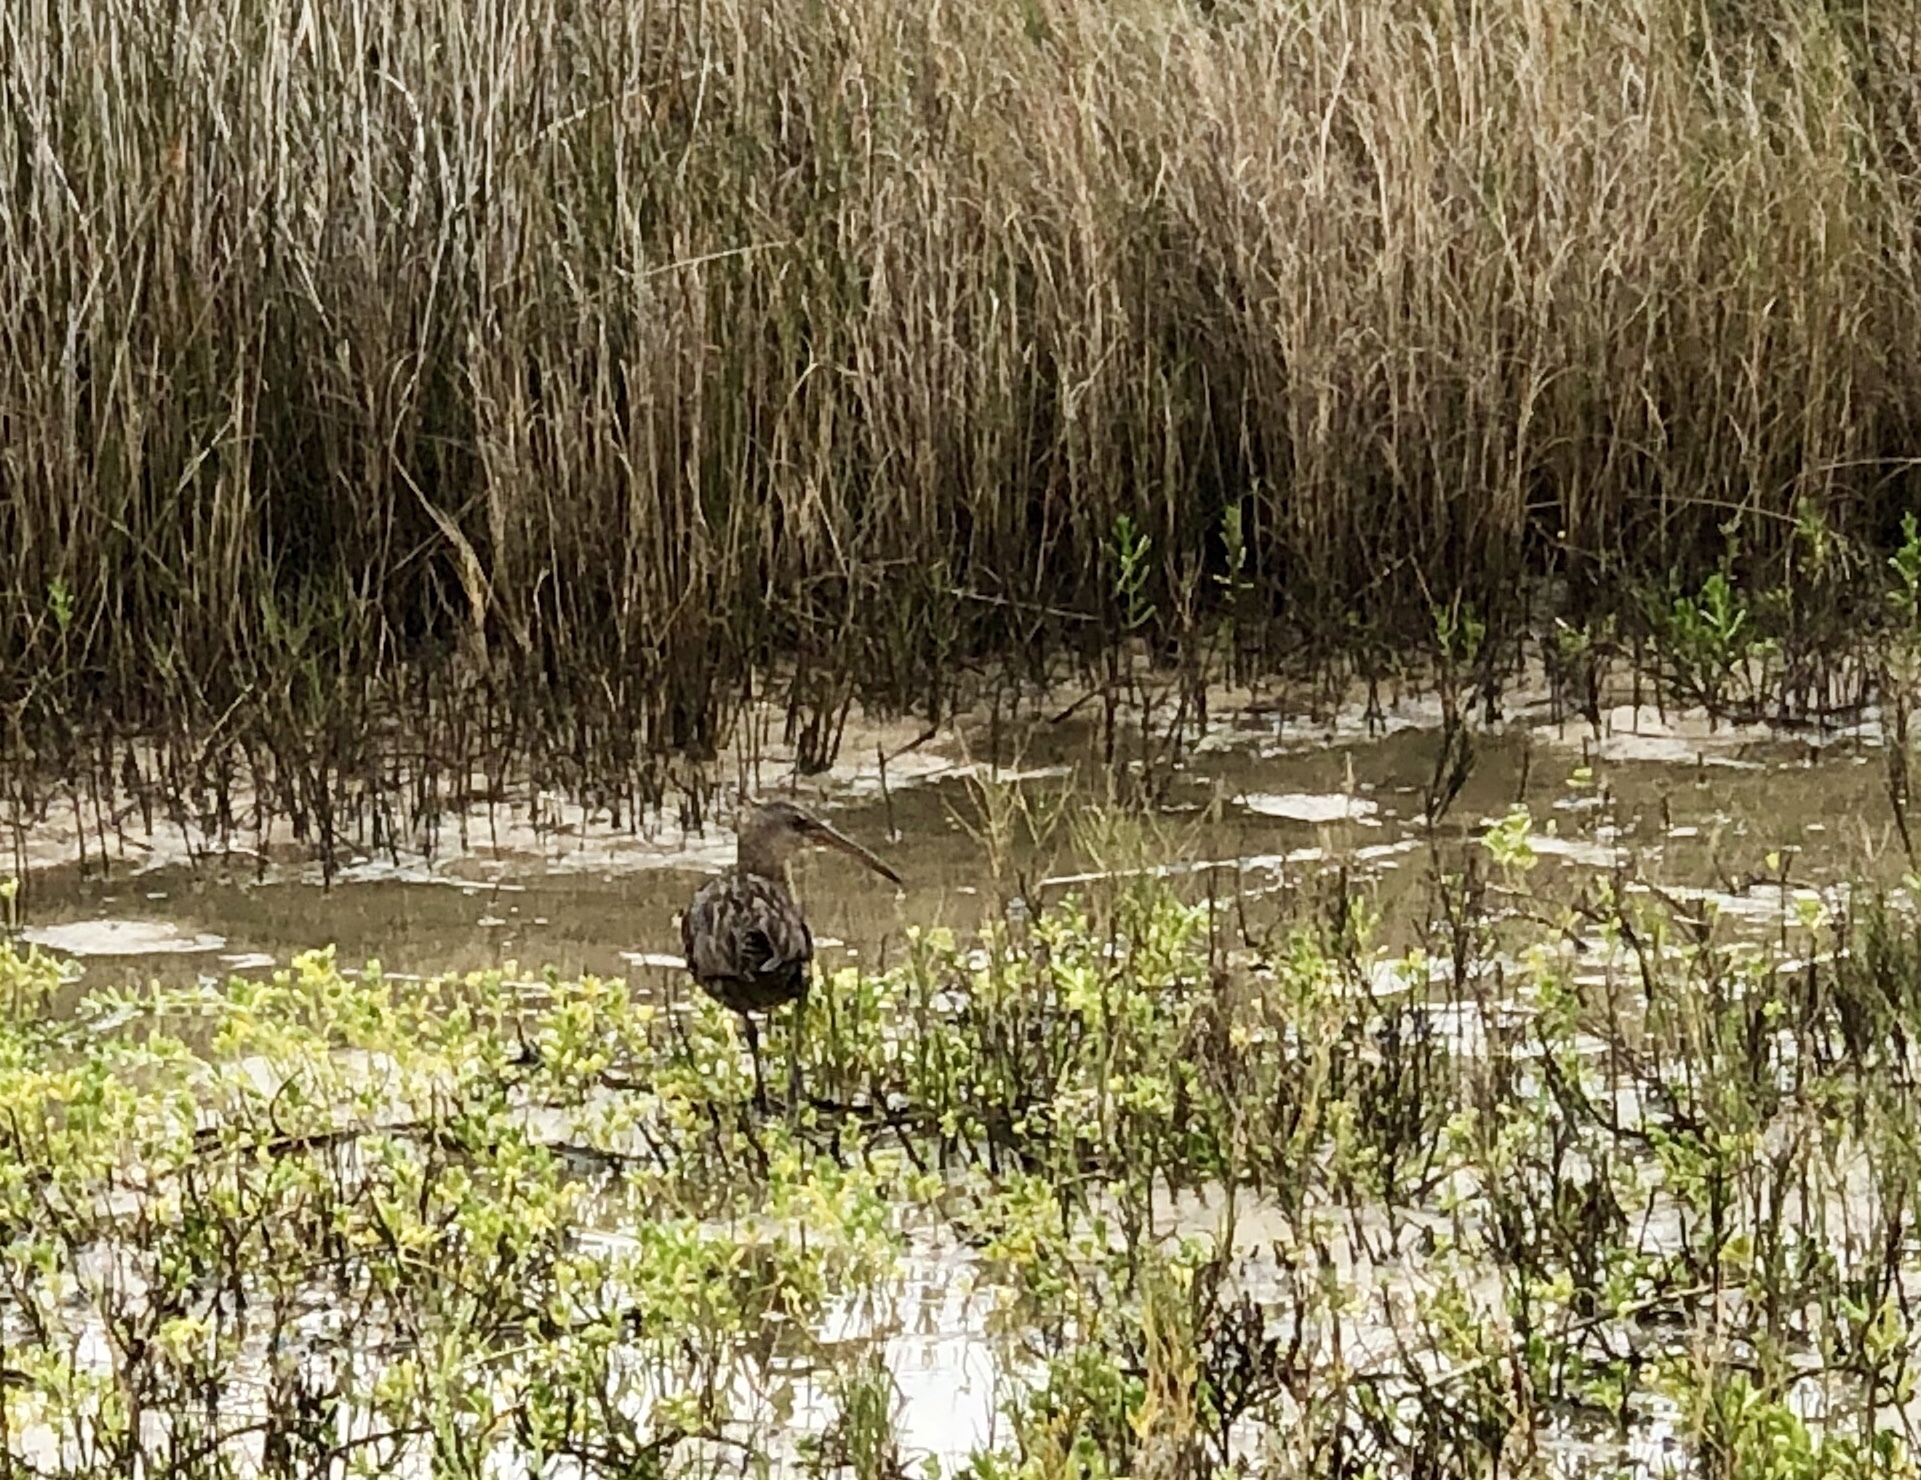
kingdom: Animalia
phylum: Chordata
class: Aves
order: Gruiformes
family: Rallidae
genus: Rallus
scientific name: Rallus elegans
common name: King rail
